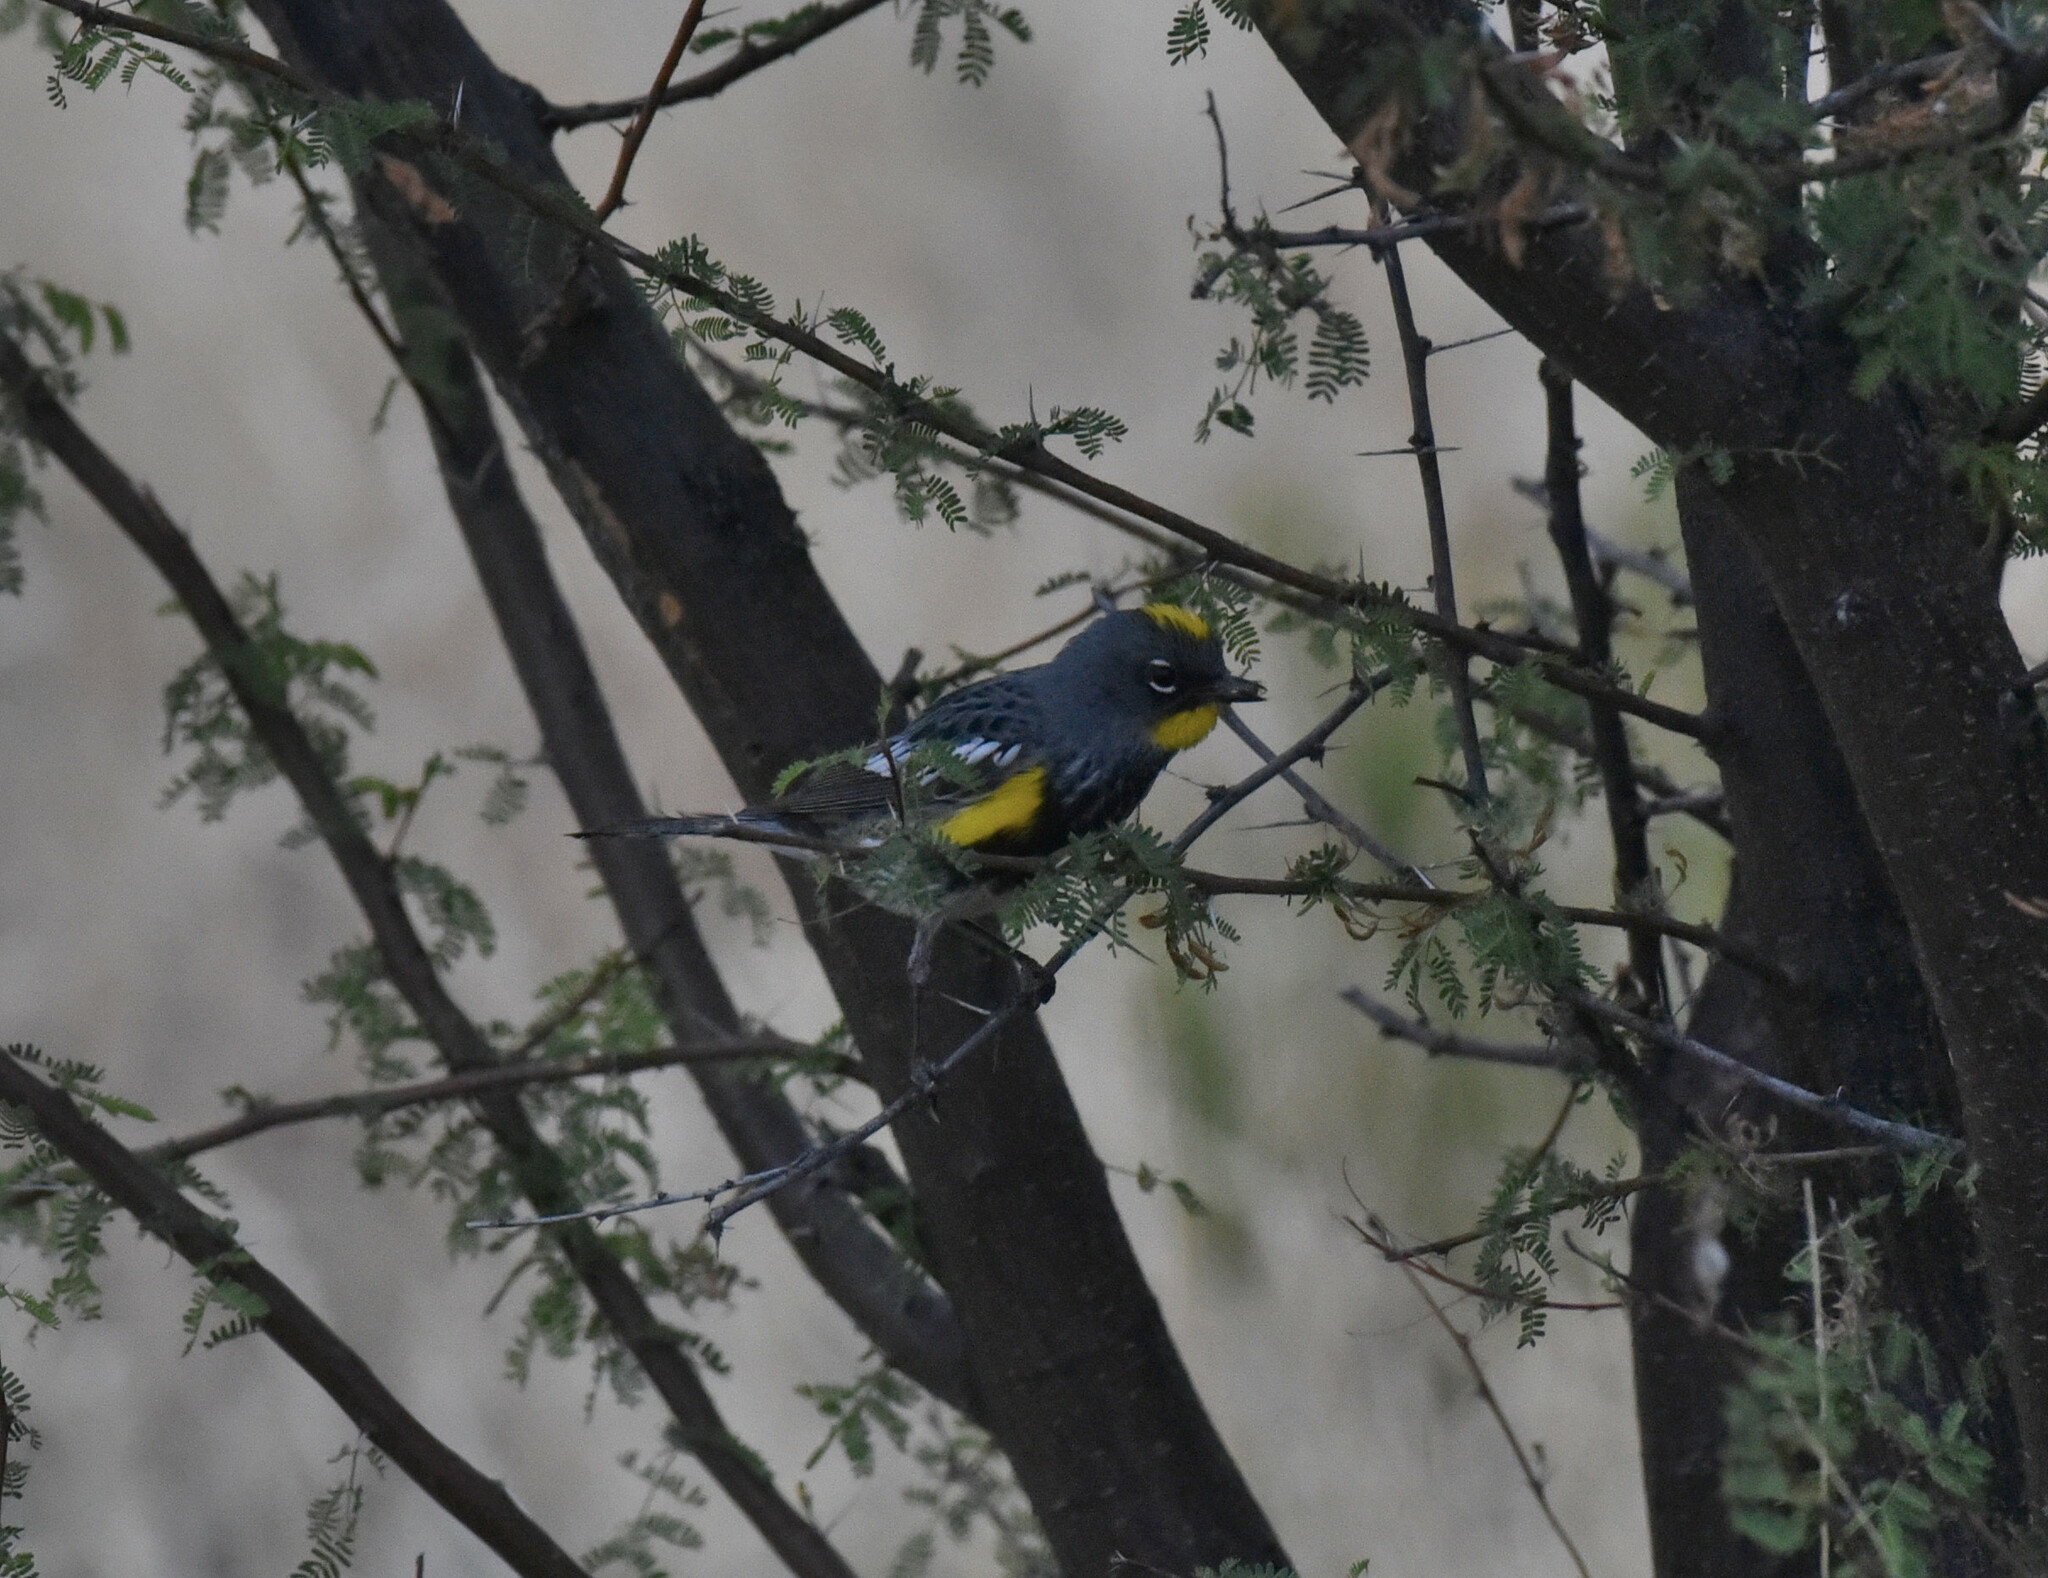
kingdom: Animalia
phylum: Chordata
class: Aves
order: Passeriformes
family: Parulidae
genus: Setophaga
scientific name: Setophaga coronata
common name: Myrtle warbler
